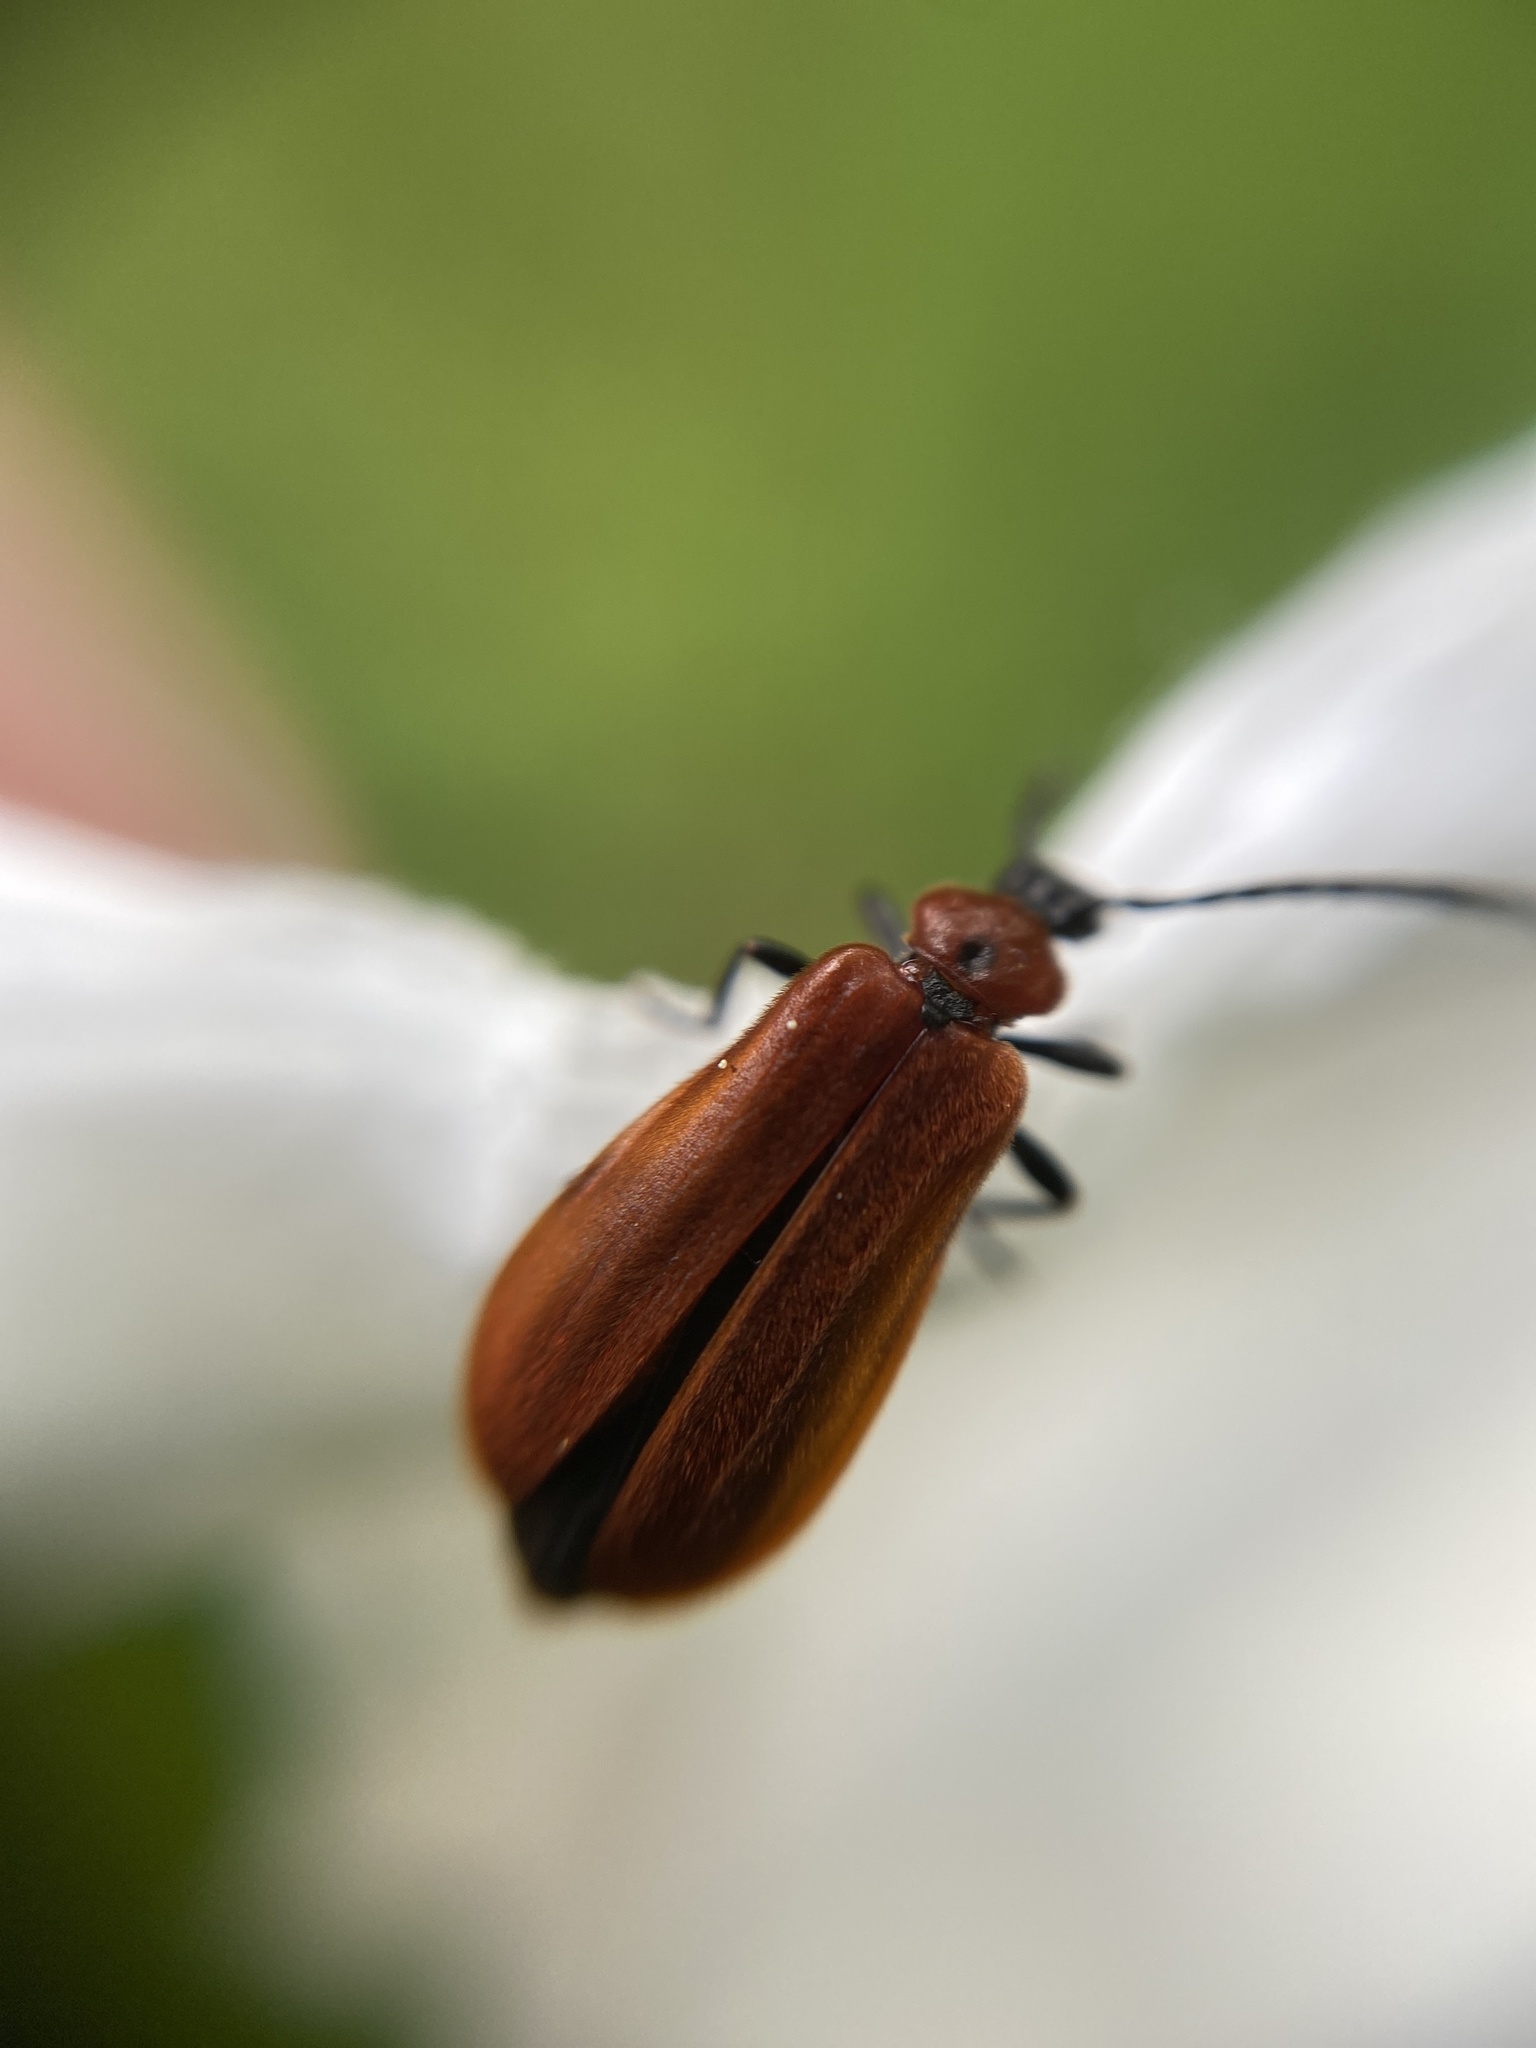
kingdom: Animalia
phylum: Arthropoda
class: Insecta
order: Coleoptera
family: Pyrochroidae
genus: Schizotus
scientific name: Schizotus pectinicornis
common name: Scarce cardinal beetle
